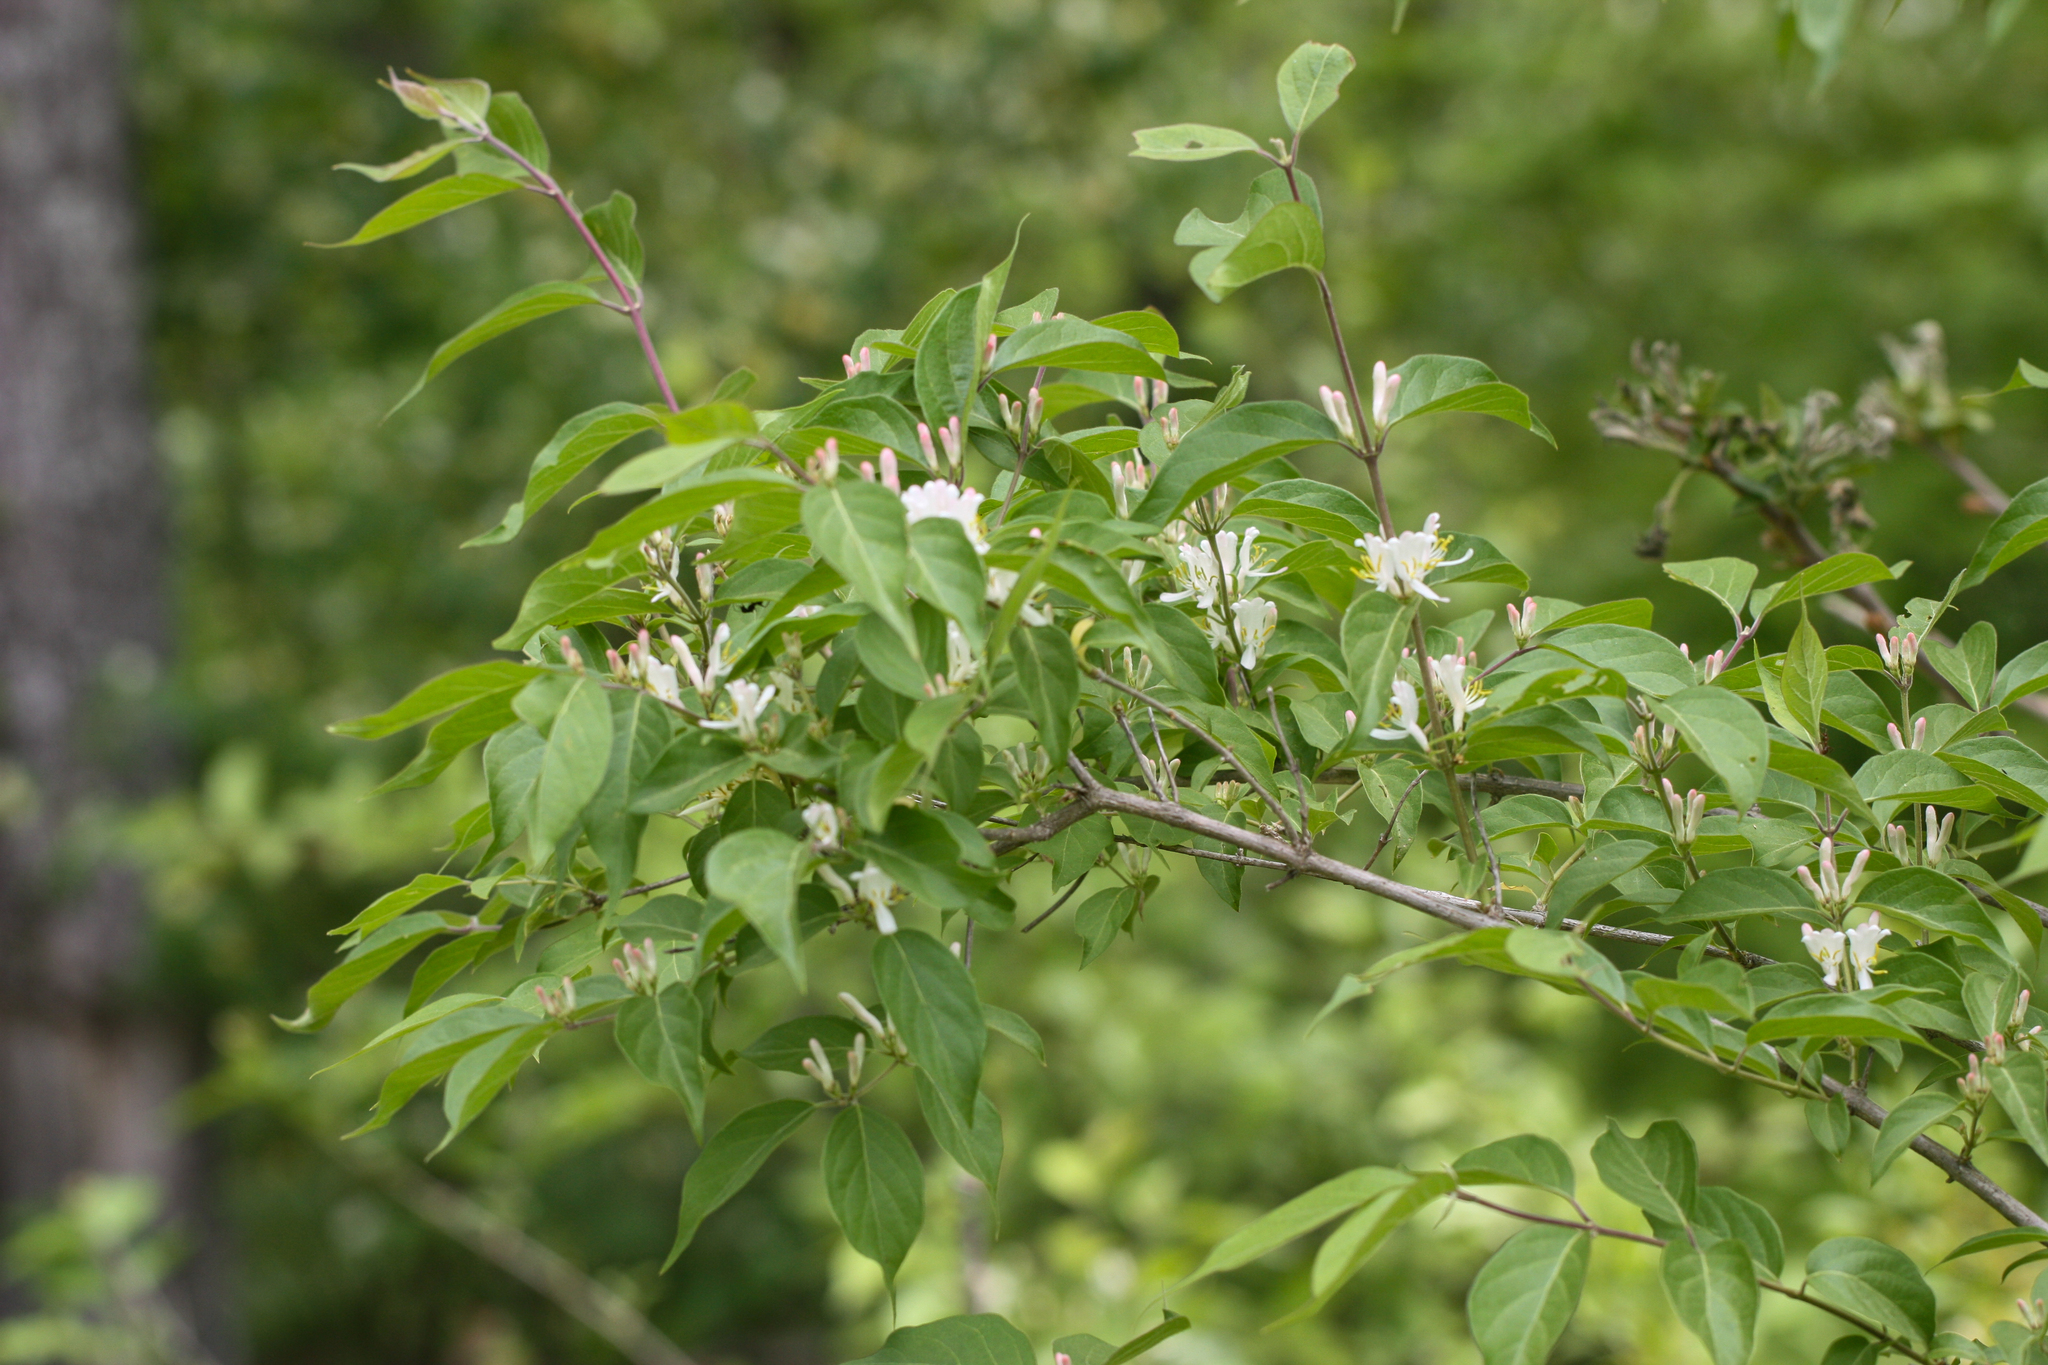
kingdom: Plantae
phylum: Tracheophyta
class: Magnoliopsida
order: Dipsacales
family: Caprifoliaceae
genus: Lonicera
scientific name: Lonicera maackii
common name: Amur honeysuckle
